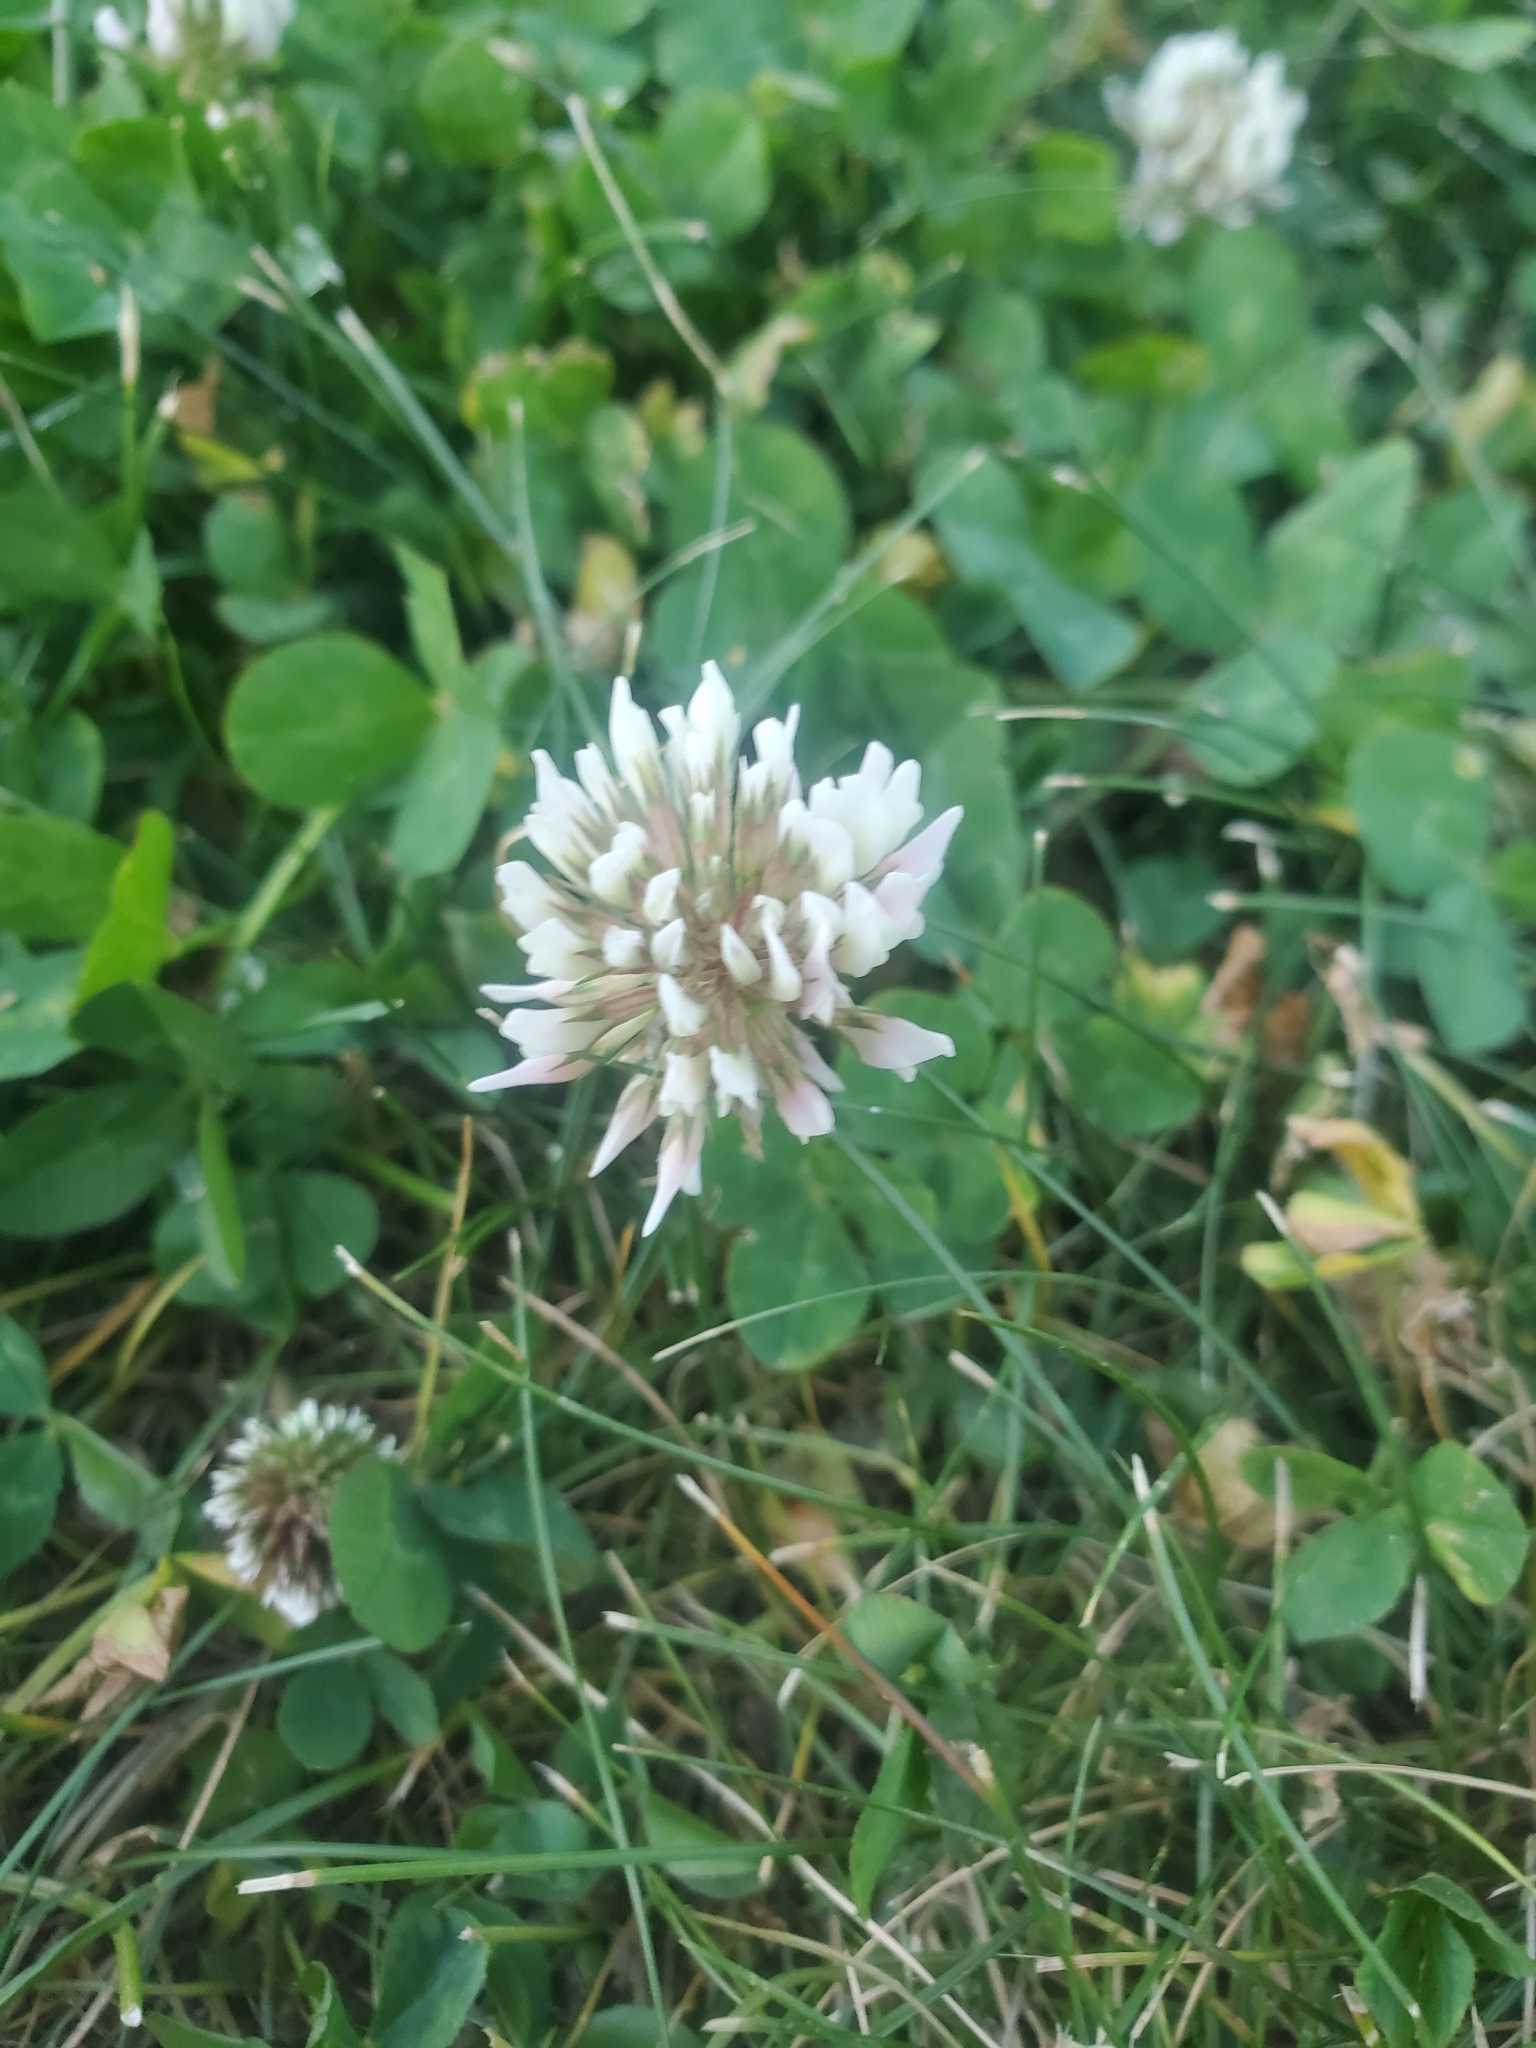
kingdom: Plantae
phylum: Tracheophyta
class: Magnoliopsida
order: Fabales
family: Fabaceae
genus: Trifolium
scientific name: Trifolium repens
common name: White clover
